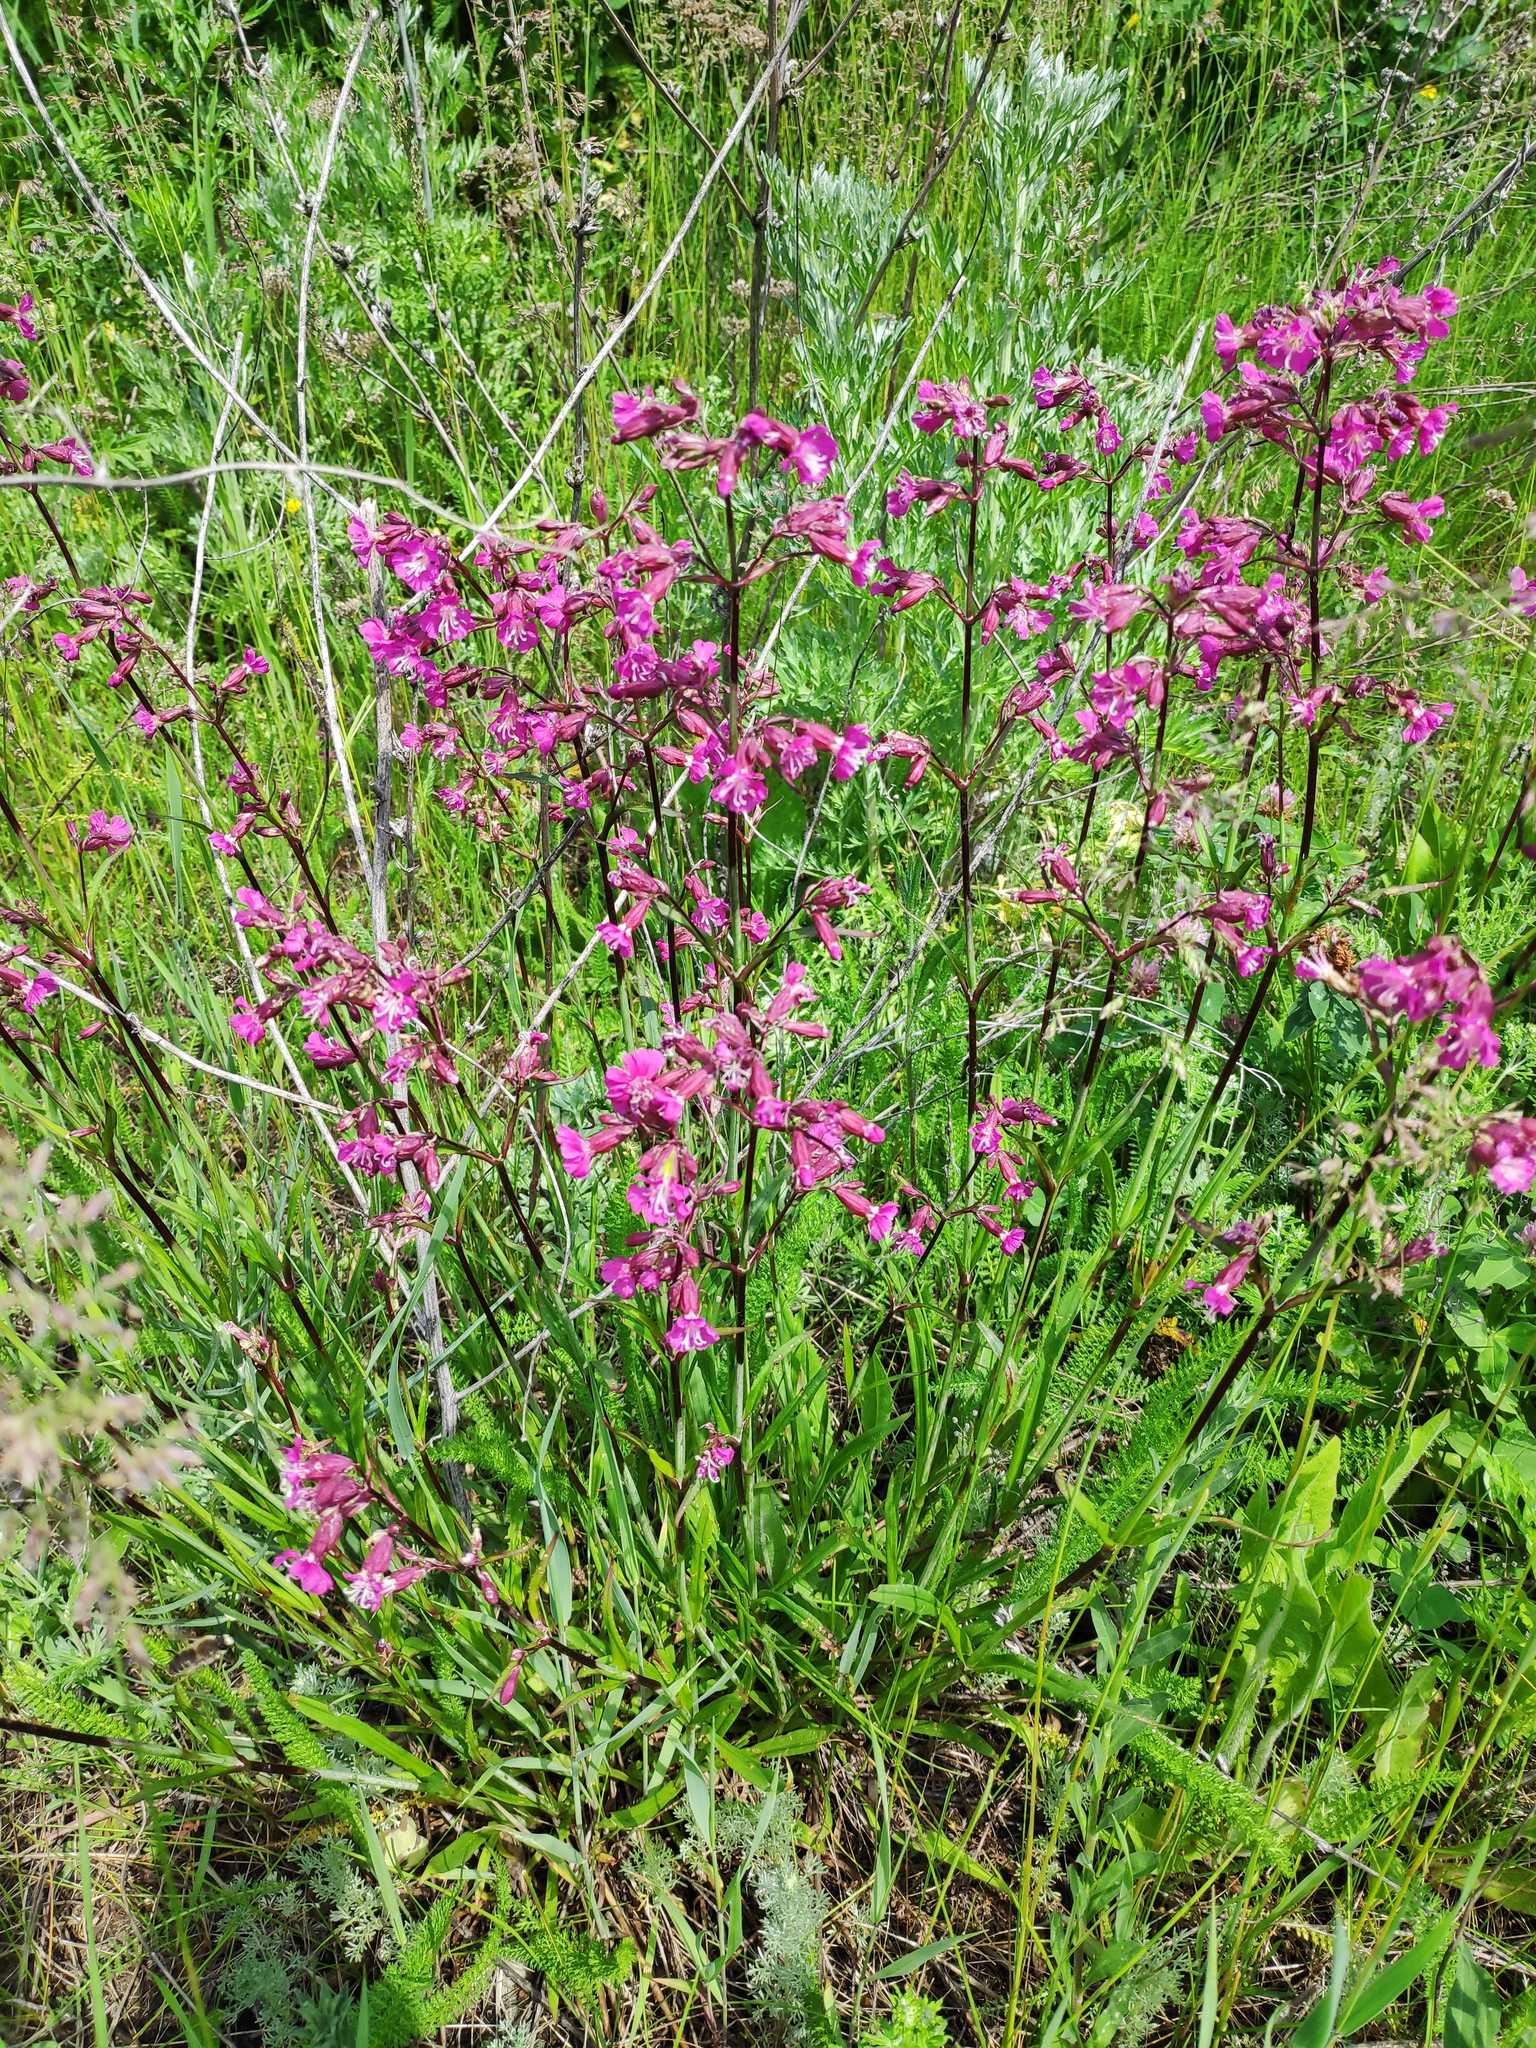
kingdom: Plantae
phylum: Tracheophyta
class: Magnoliopsida
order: Caryophyllales
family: Caryophyllaceae
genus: Viscaria
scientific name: Viscaria vulgaris
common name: Clammy campion
